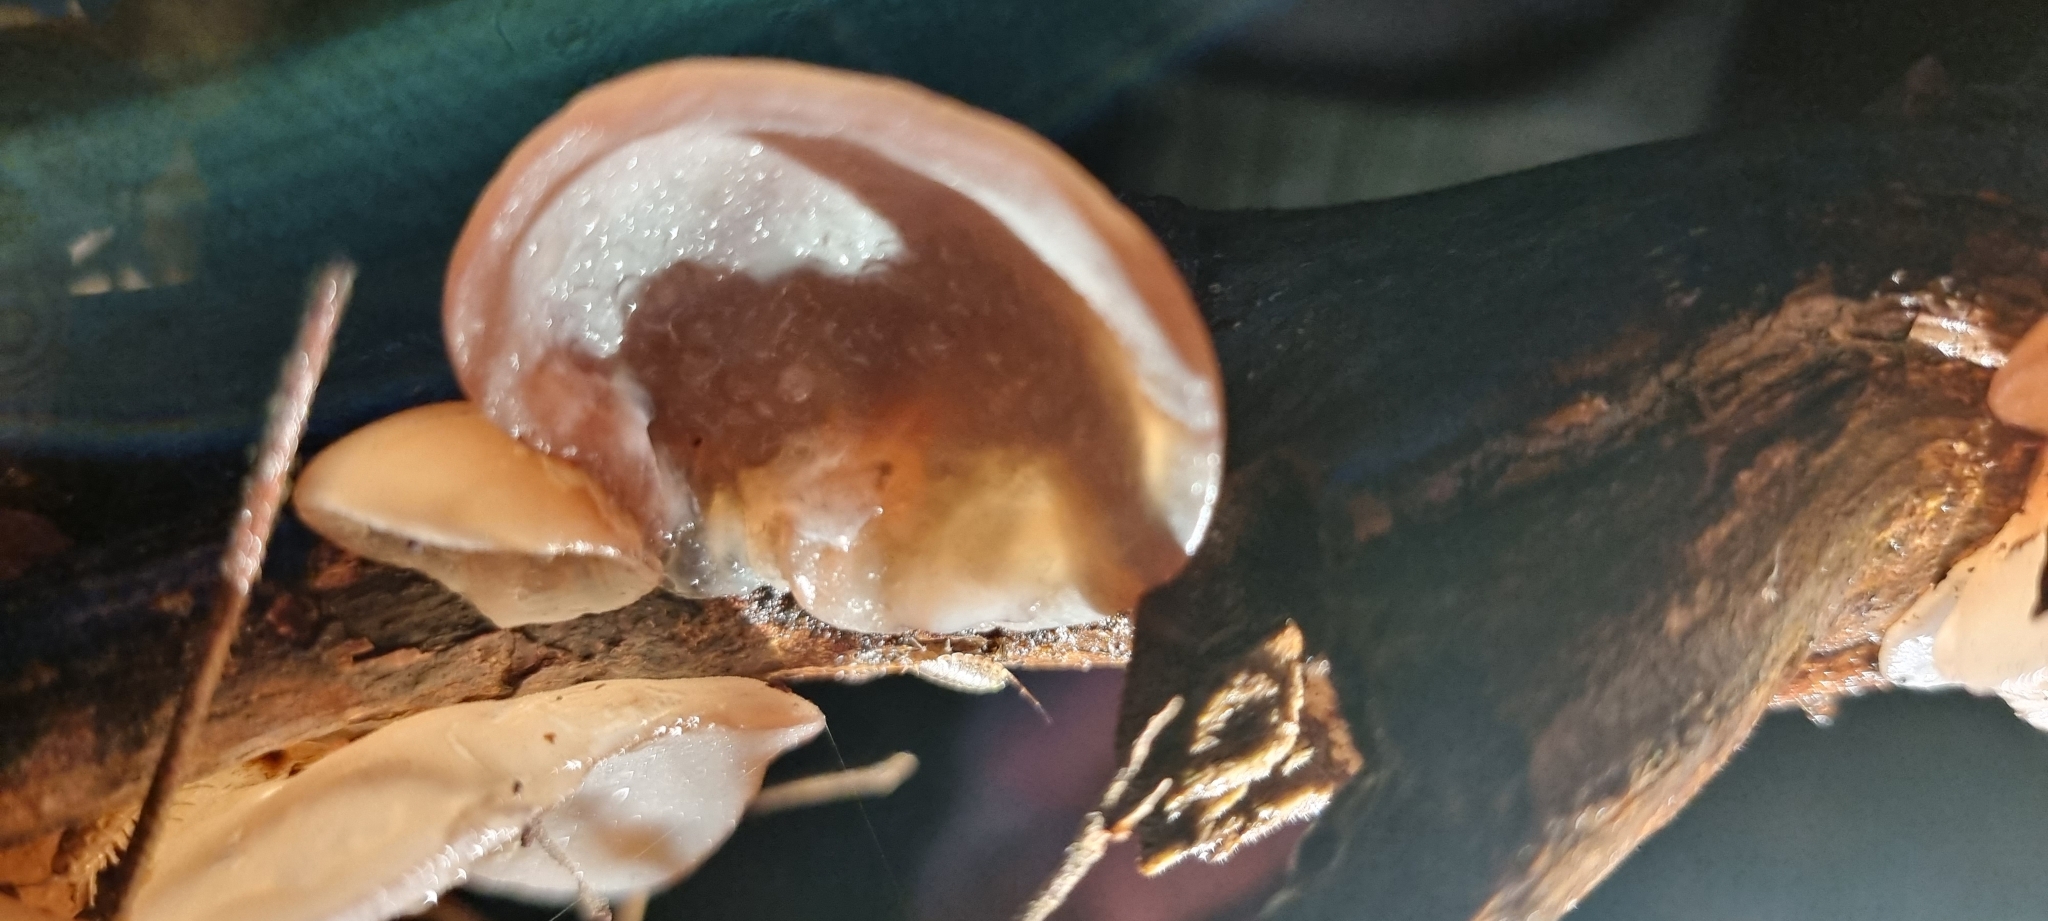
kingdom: Fungi
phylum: Basidiomycota
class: Agaricomycetes
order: Auriculariales
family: Auriculariaceae
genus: Auricularia
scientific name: Auricularia auricula-judae
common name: Jelly ear
